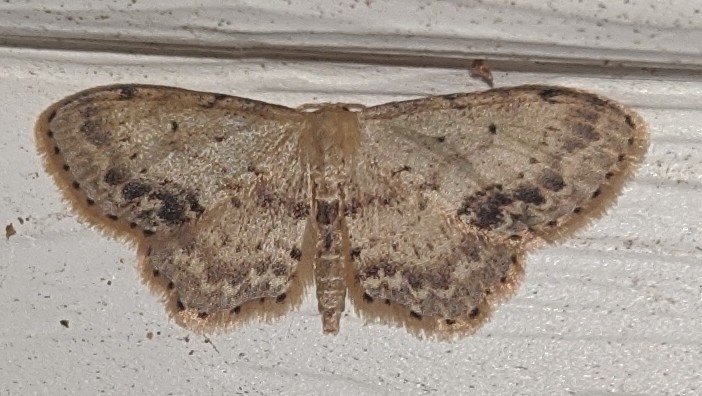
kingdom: Animalia
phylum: Arthropoda
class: Insecta
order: Lepidoptera
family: Geometridae
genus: Idaea
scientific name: Idaea dimidiata
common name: Single-dotted wave
